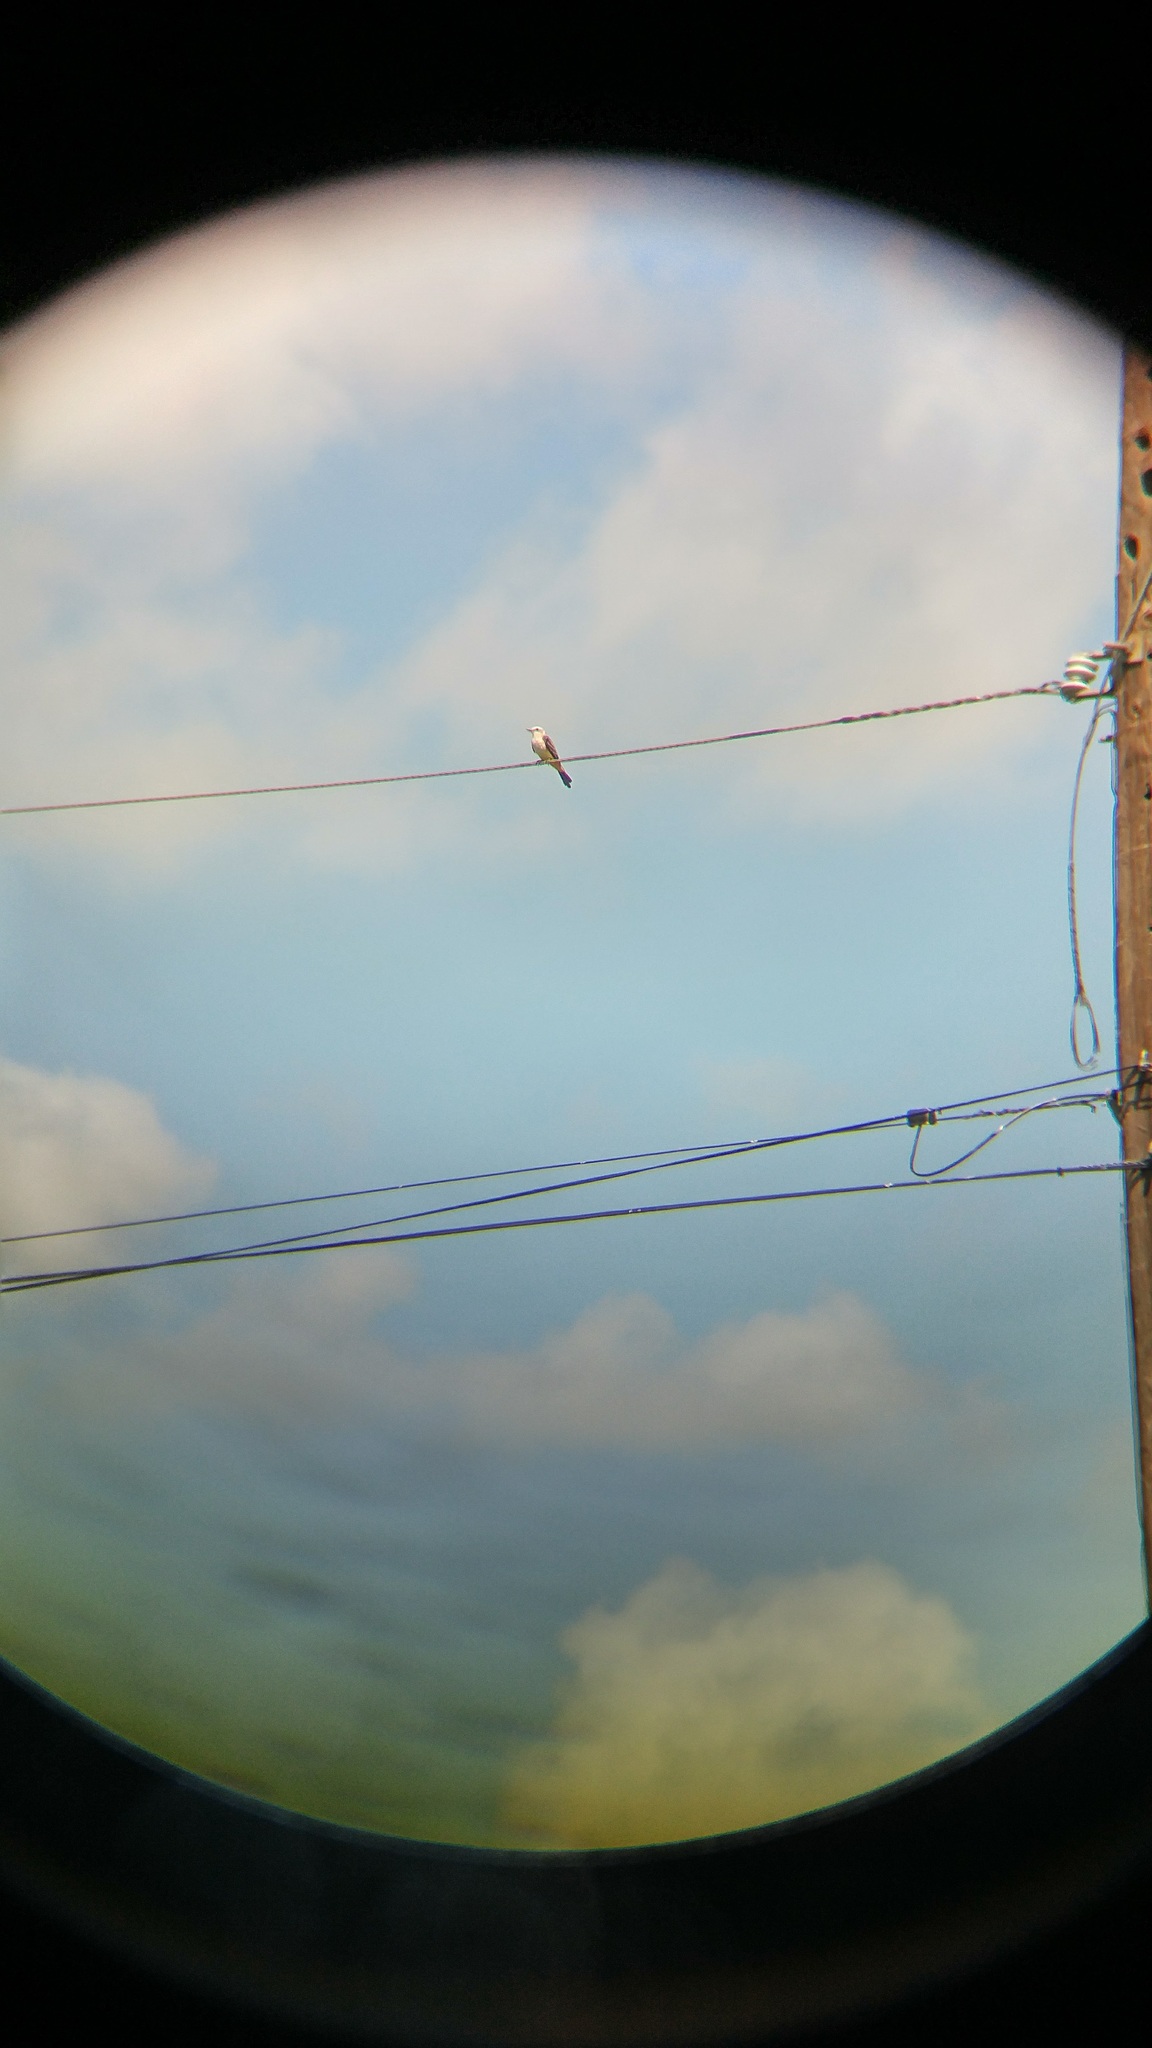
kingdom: Animalia
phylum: Chordata
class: Aves
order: Passeriformes
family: Tyrannidae
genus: Tyrannus
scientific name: Tyrannus forficatus
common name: Scissor-tailed flycatcher
